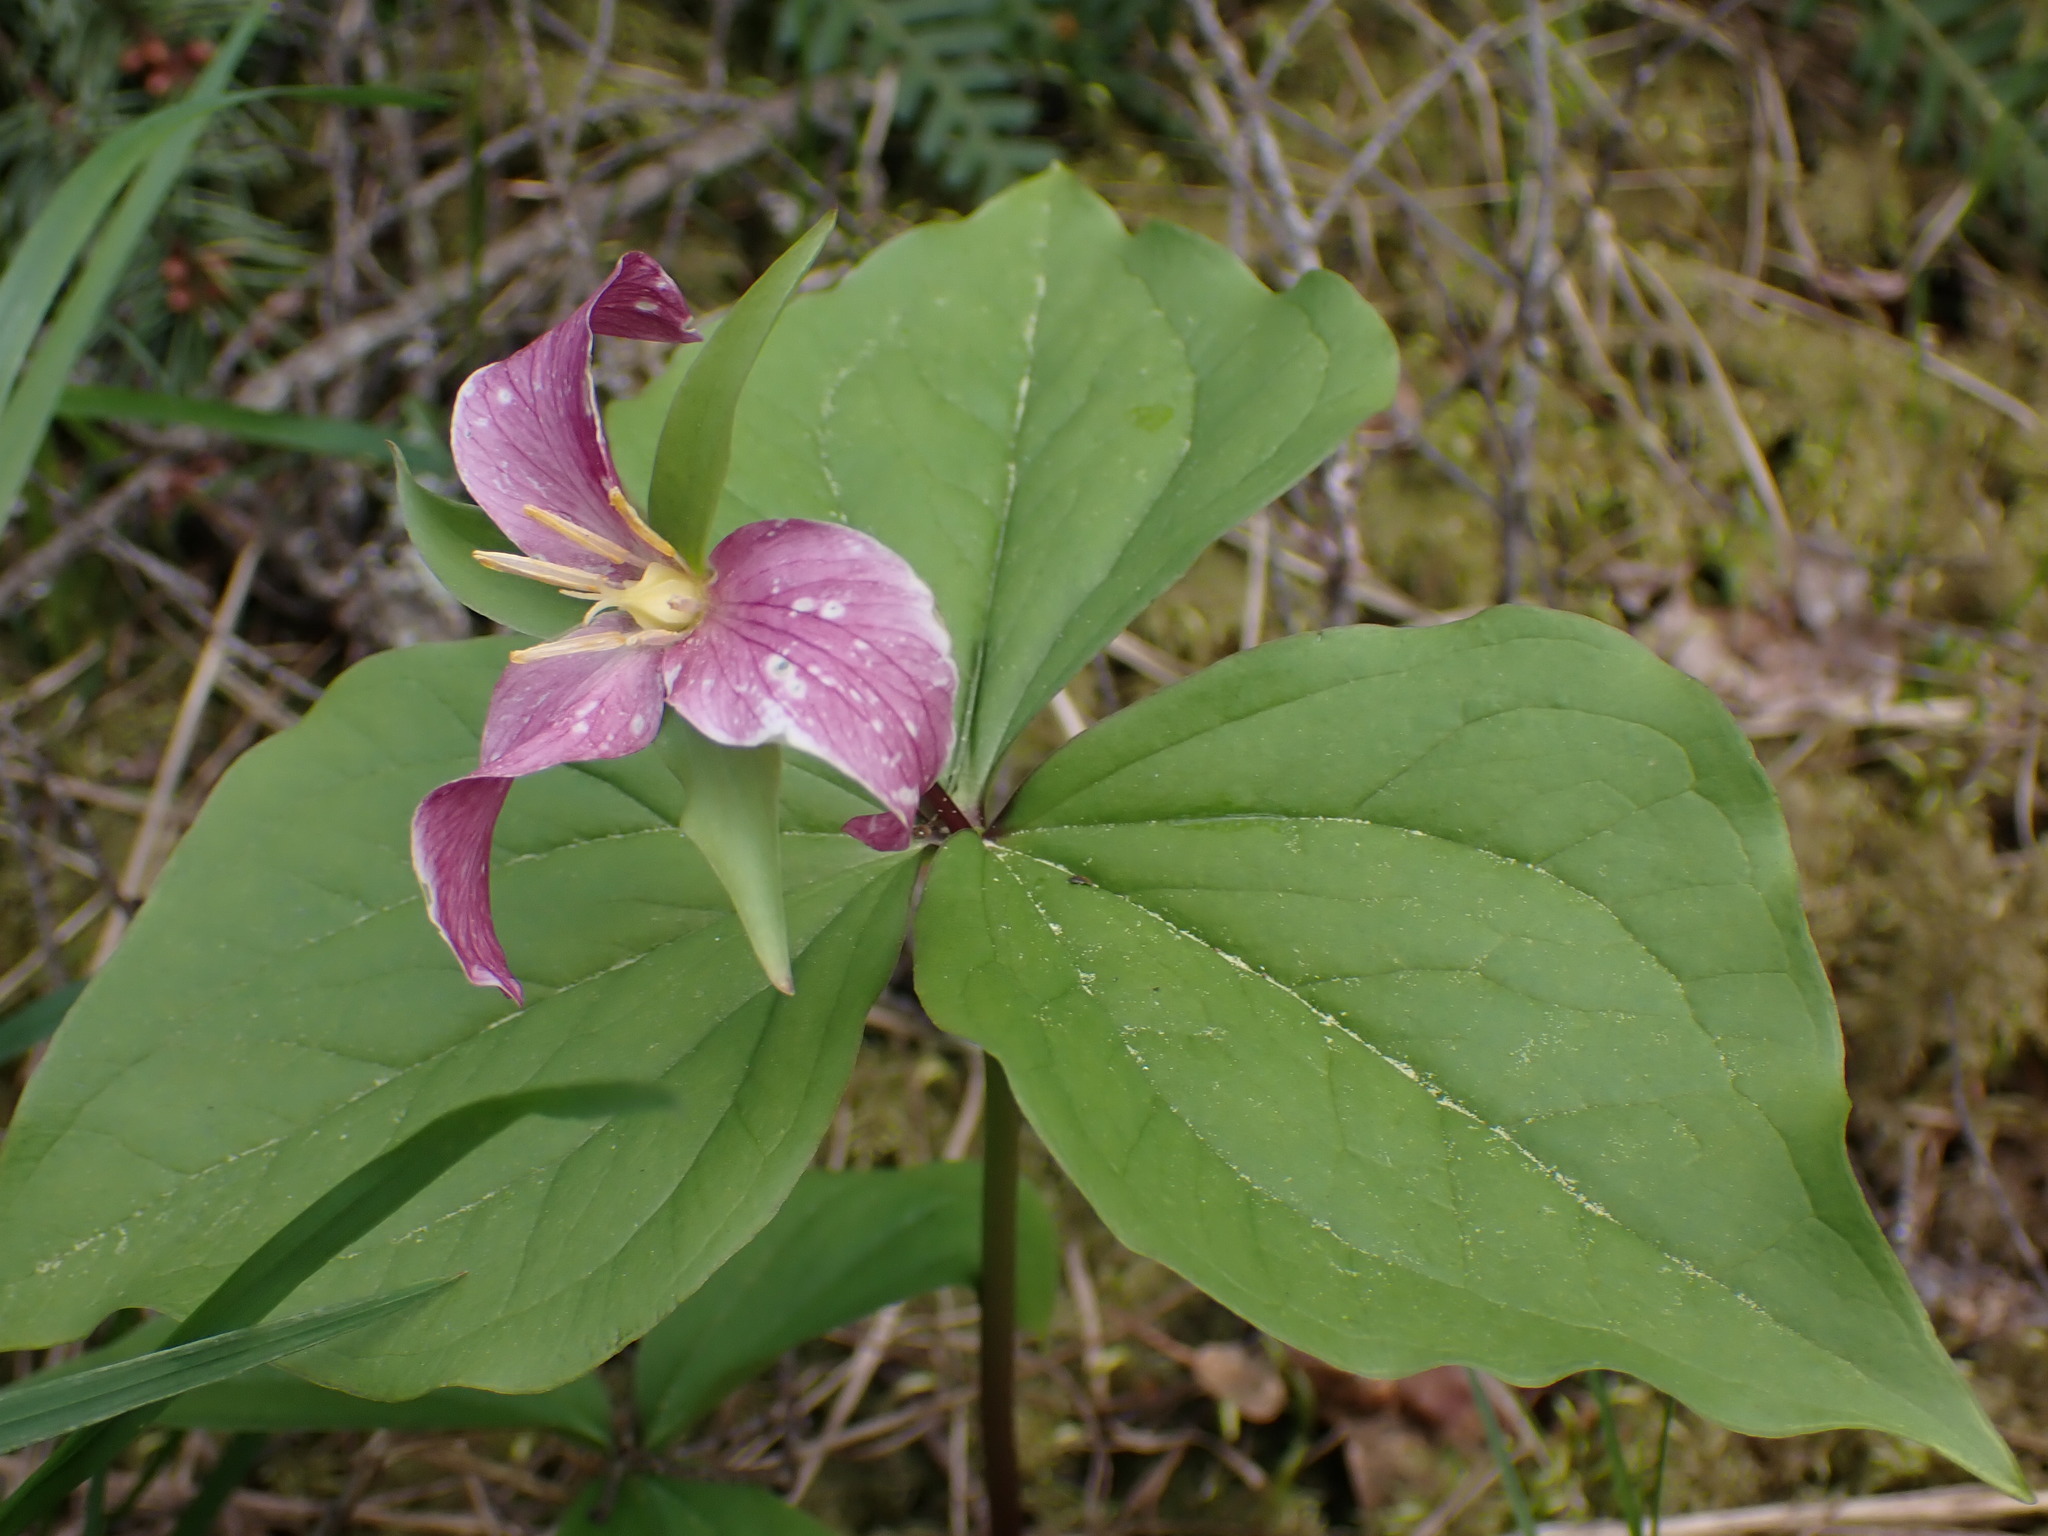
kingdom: Plantae
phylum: Tracheophyta
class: Liliopsida
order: Liliales
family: Melanthiaceae
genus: Trillium
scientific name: Trillium ovatum
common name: Pacific trillium
